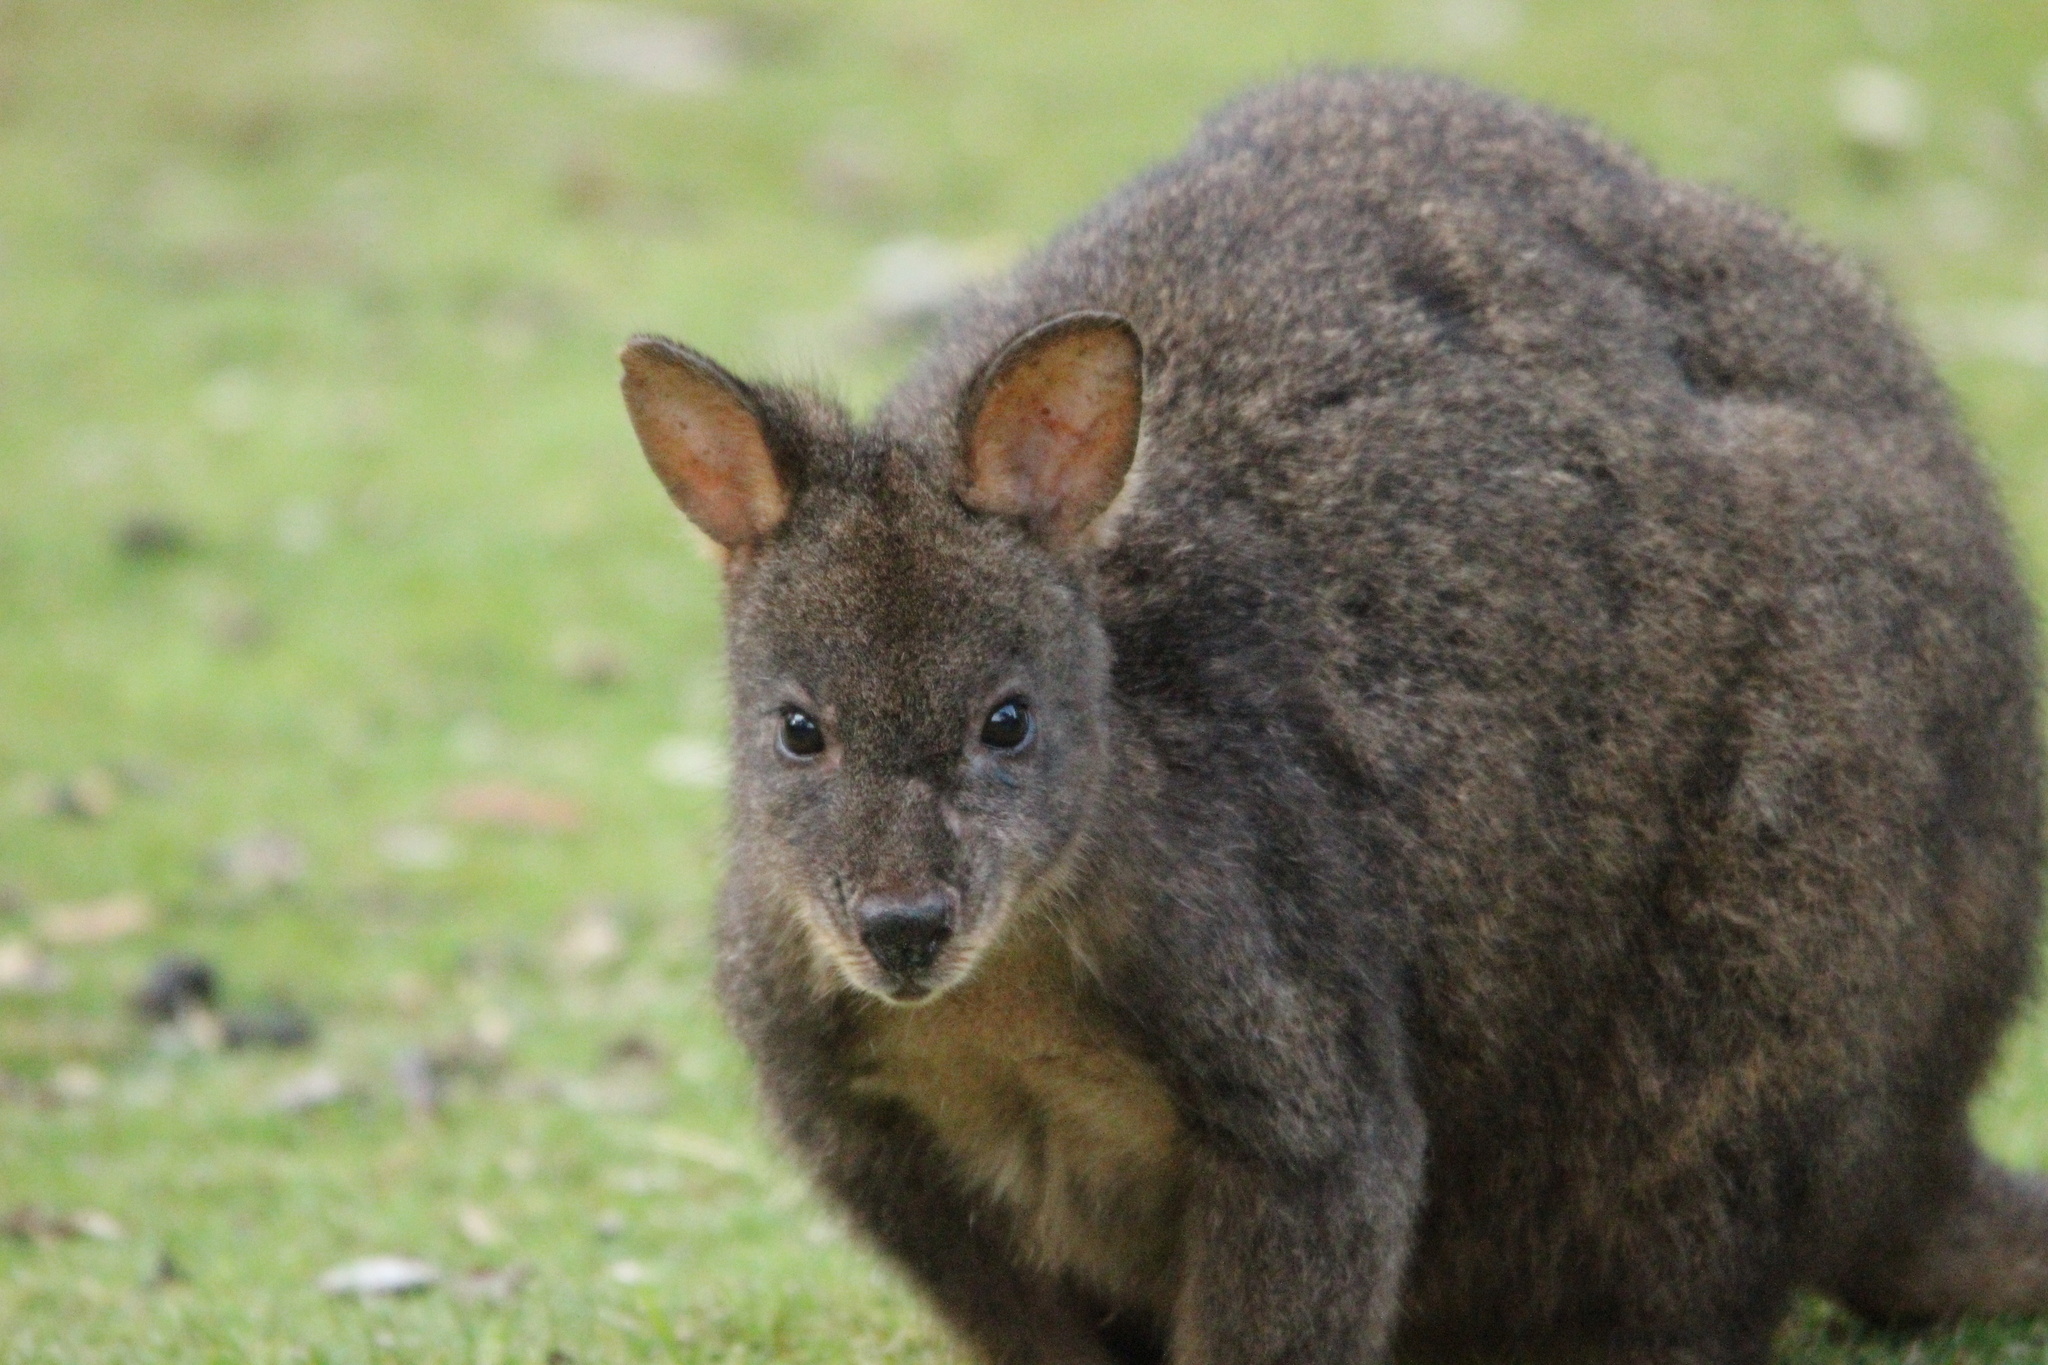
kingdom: Animalia
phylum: Chordata
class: Mammalia
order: Diprotodontia
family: Macropodidae
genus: Thylogale
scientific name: Thylogale billardierii
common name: Tasmanian pademelon
